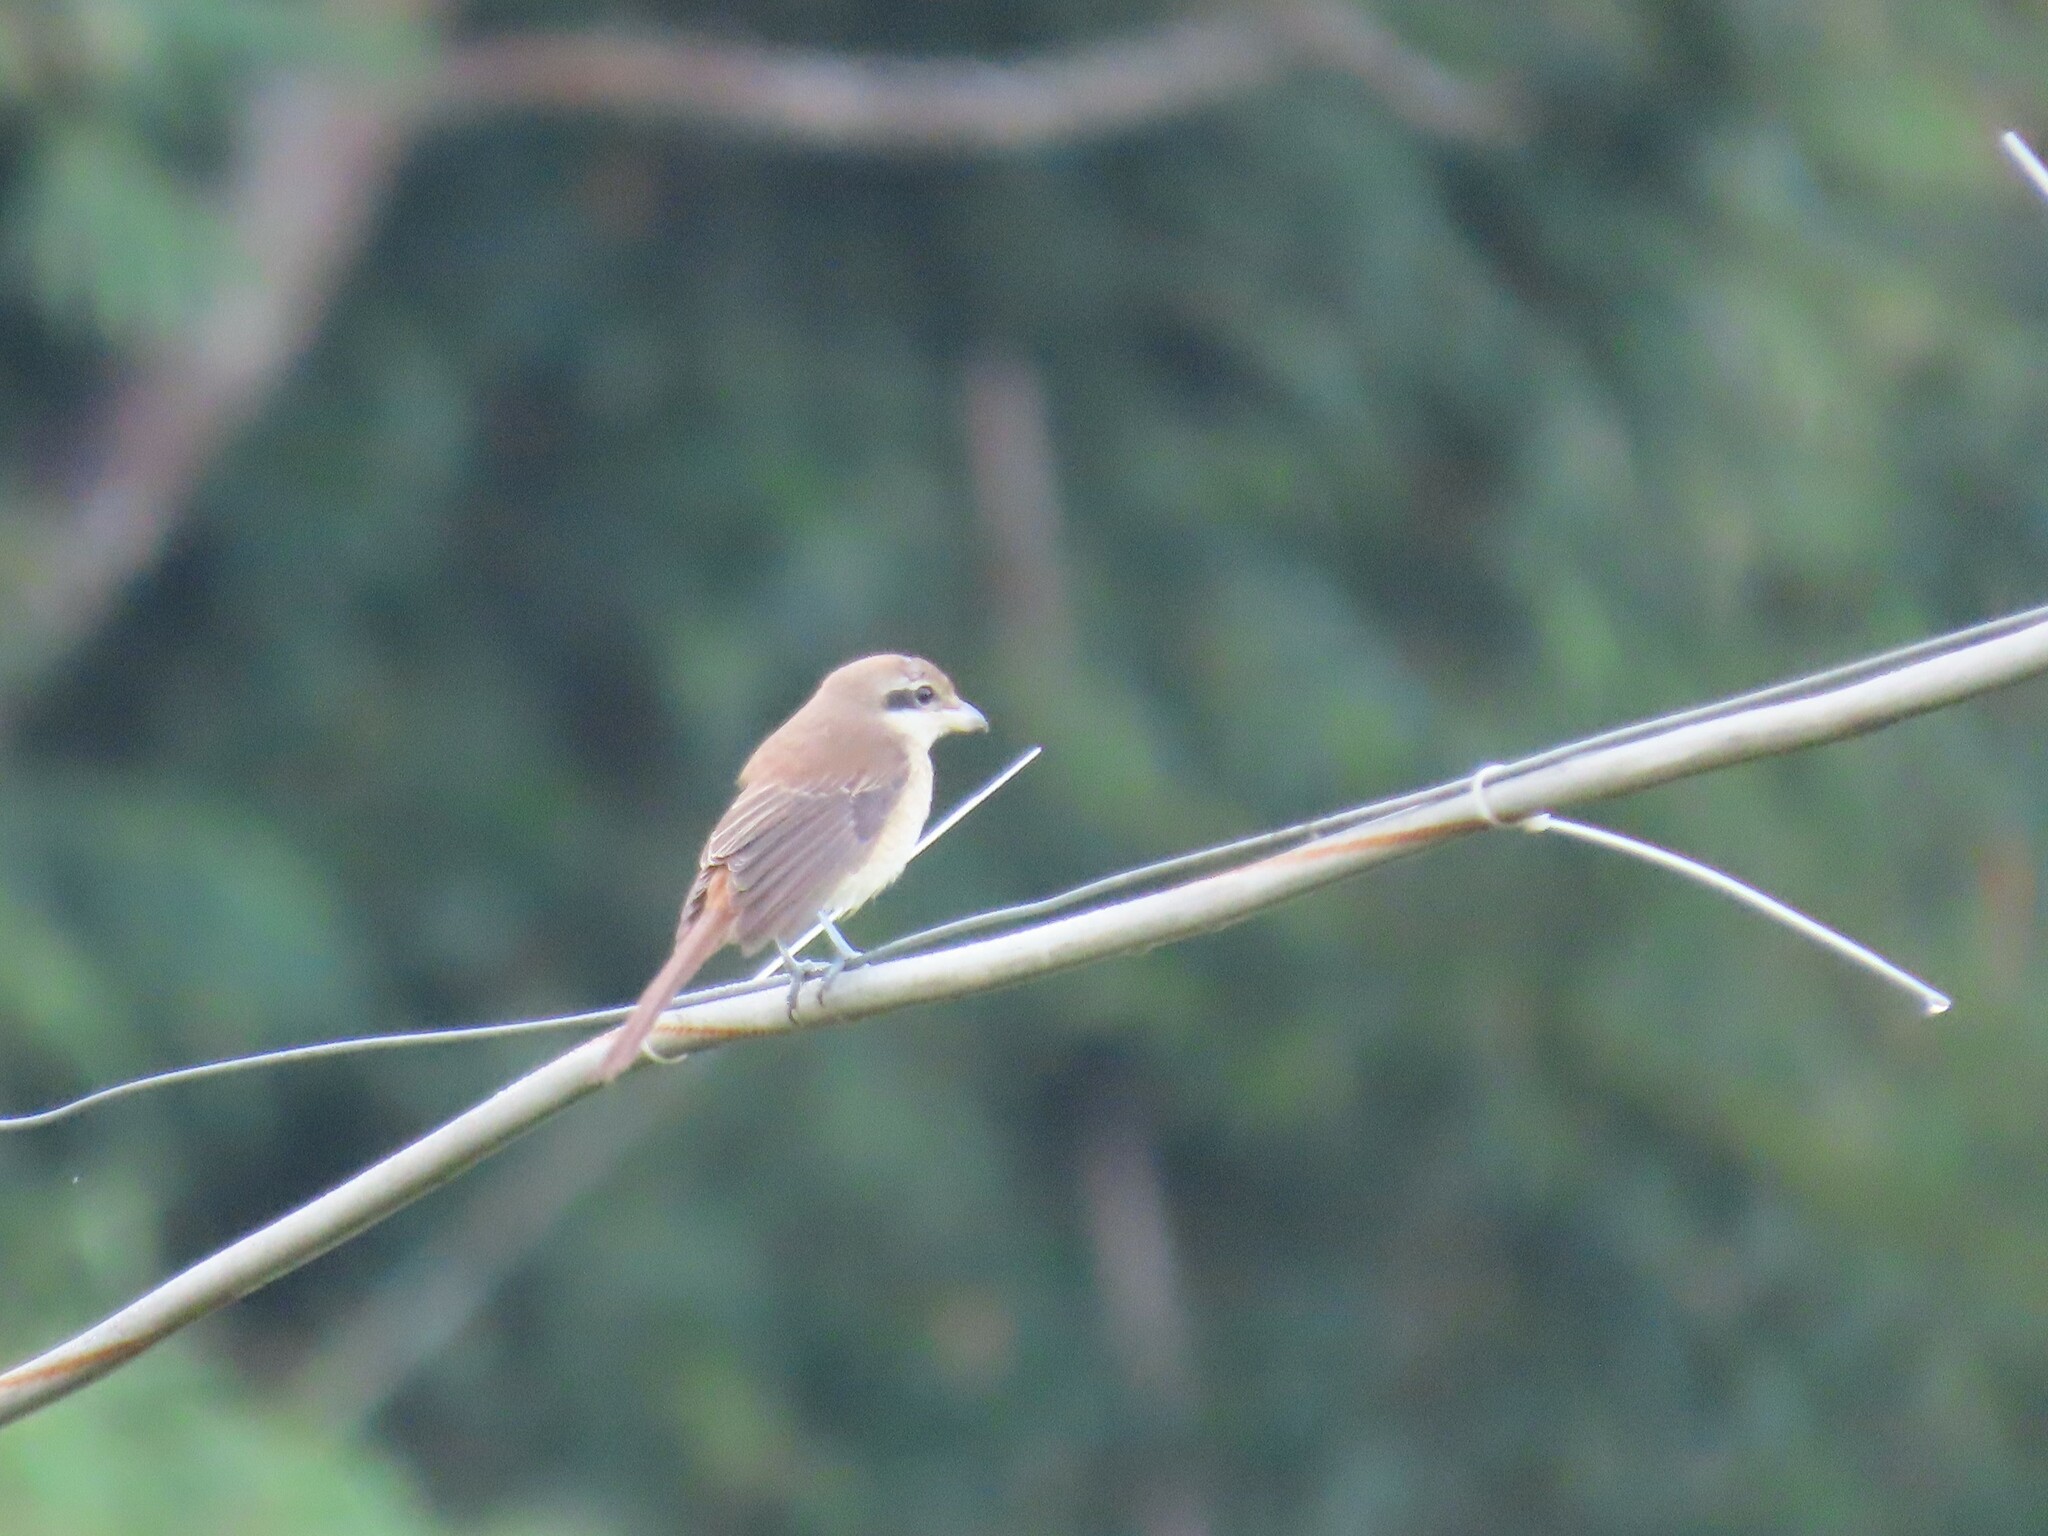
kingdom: Animalia
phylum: Chordata
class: Aves
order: Passeriformes
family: Laniidae
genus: Lanius
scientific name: Lanius cristatus
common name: Brown shrike
